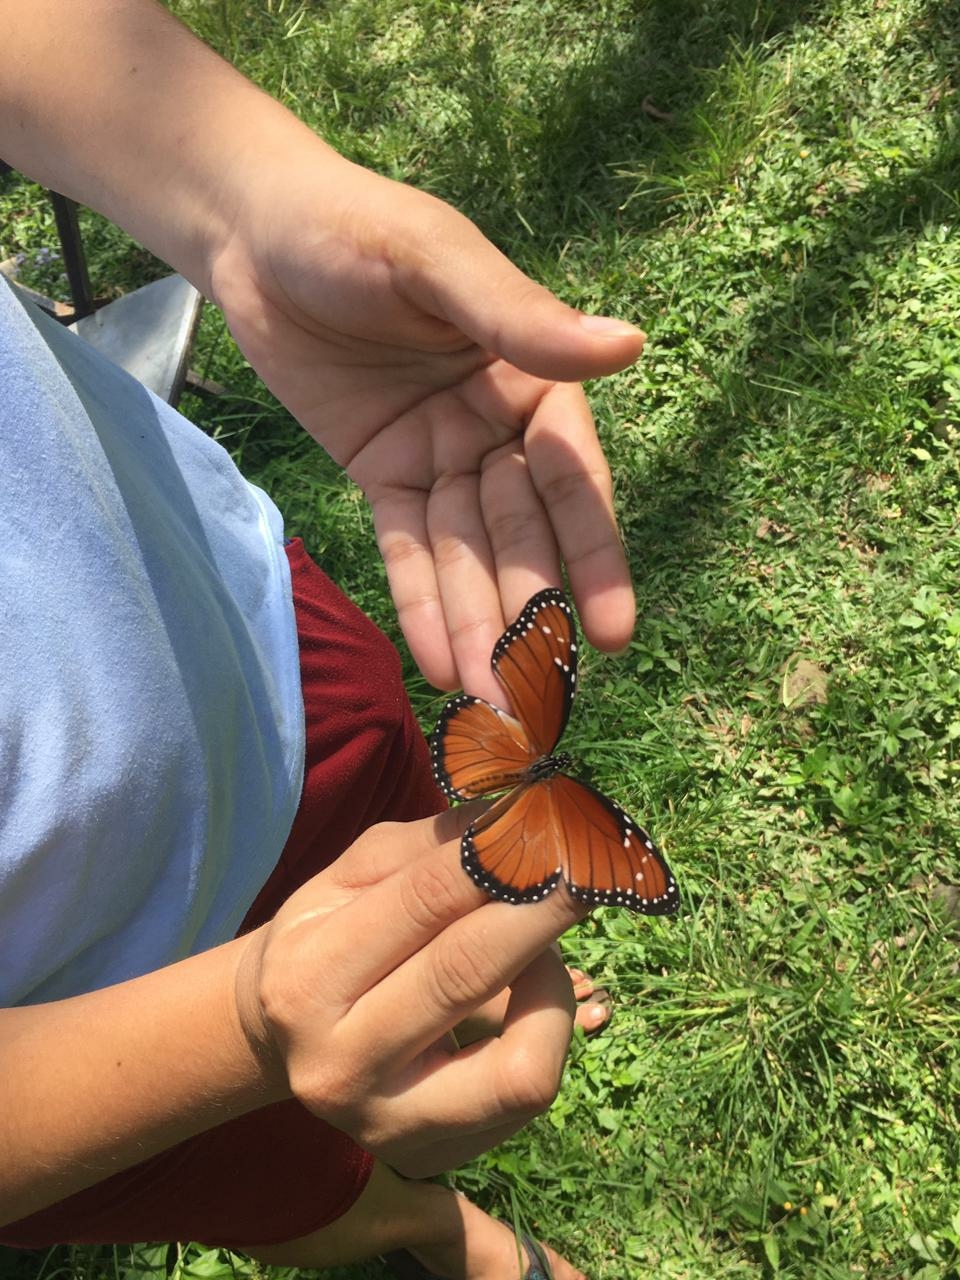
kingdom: Animalia
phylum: Arthropoda
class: Insecta
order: Lepidoptera
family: Nymphalidae
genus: Danaus
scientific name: Danaus eresimus
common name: Soldier
